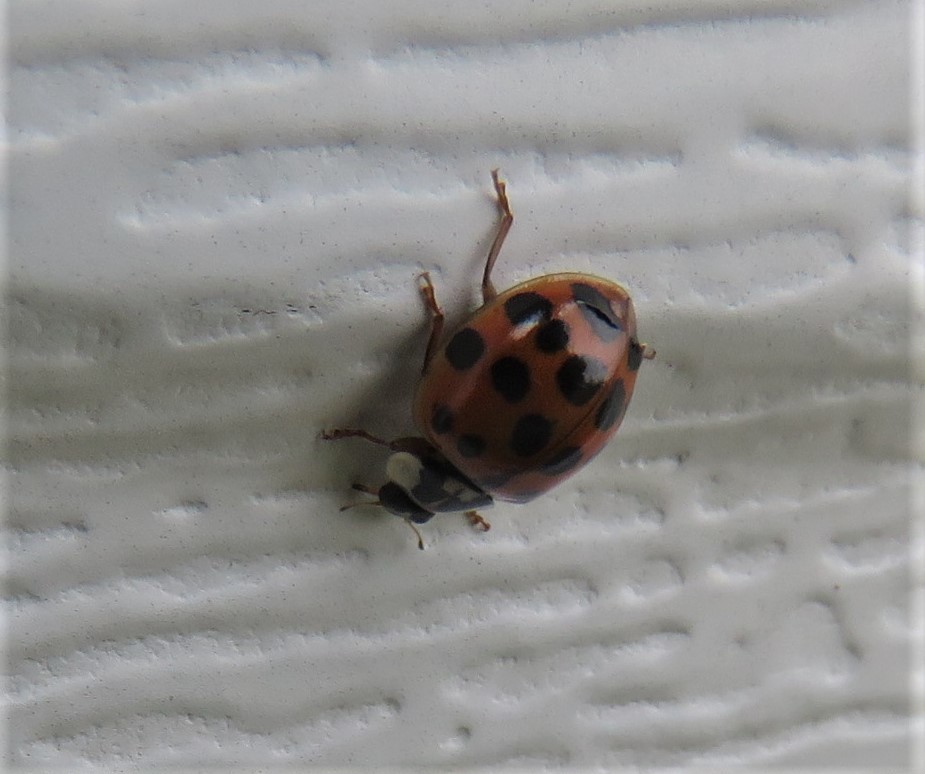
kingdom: Animalia
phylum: Arthropoda
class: Insecta
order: Coleoptera
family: Coccinellidae
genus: Harmonia
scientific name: Harmonia axyridis
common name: Harlequin ladybird
